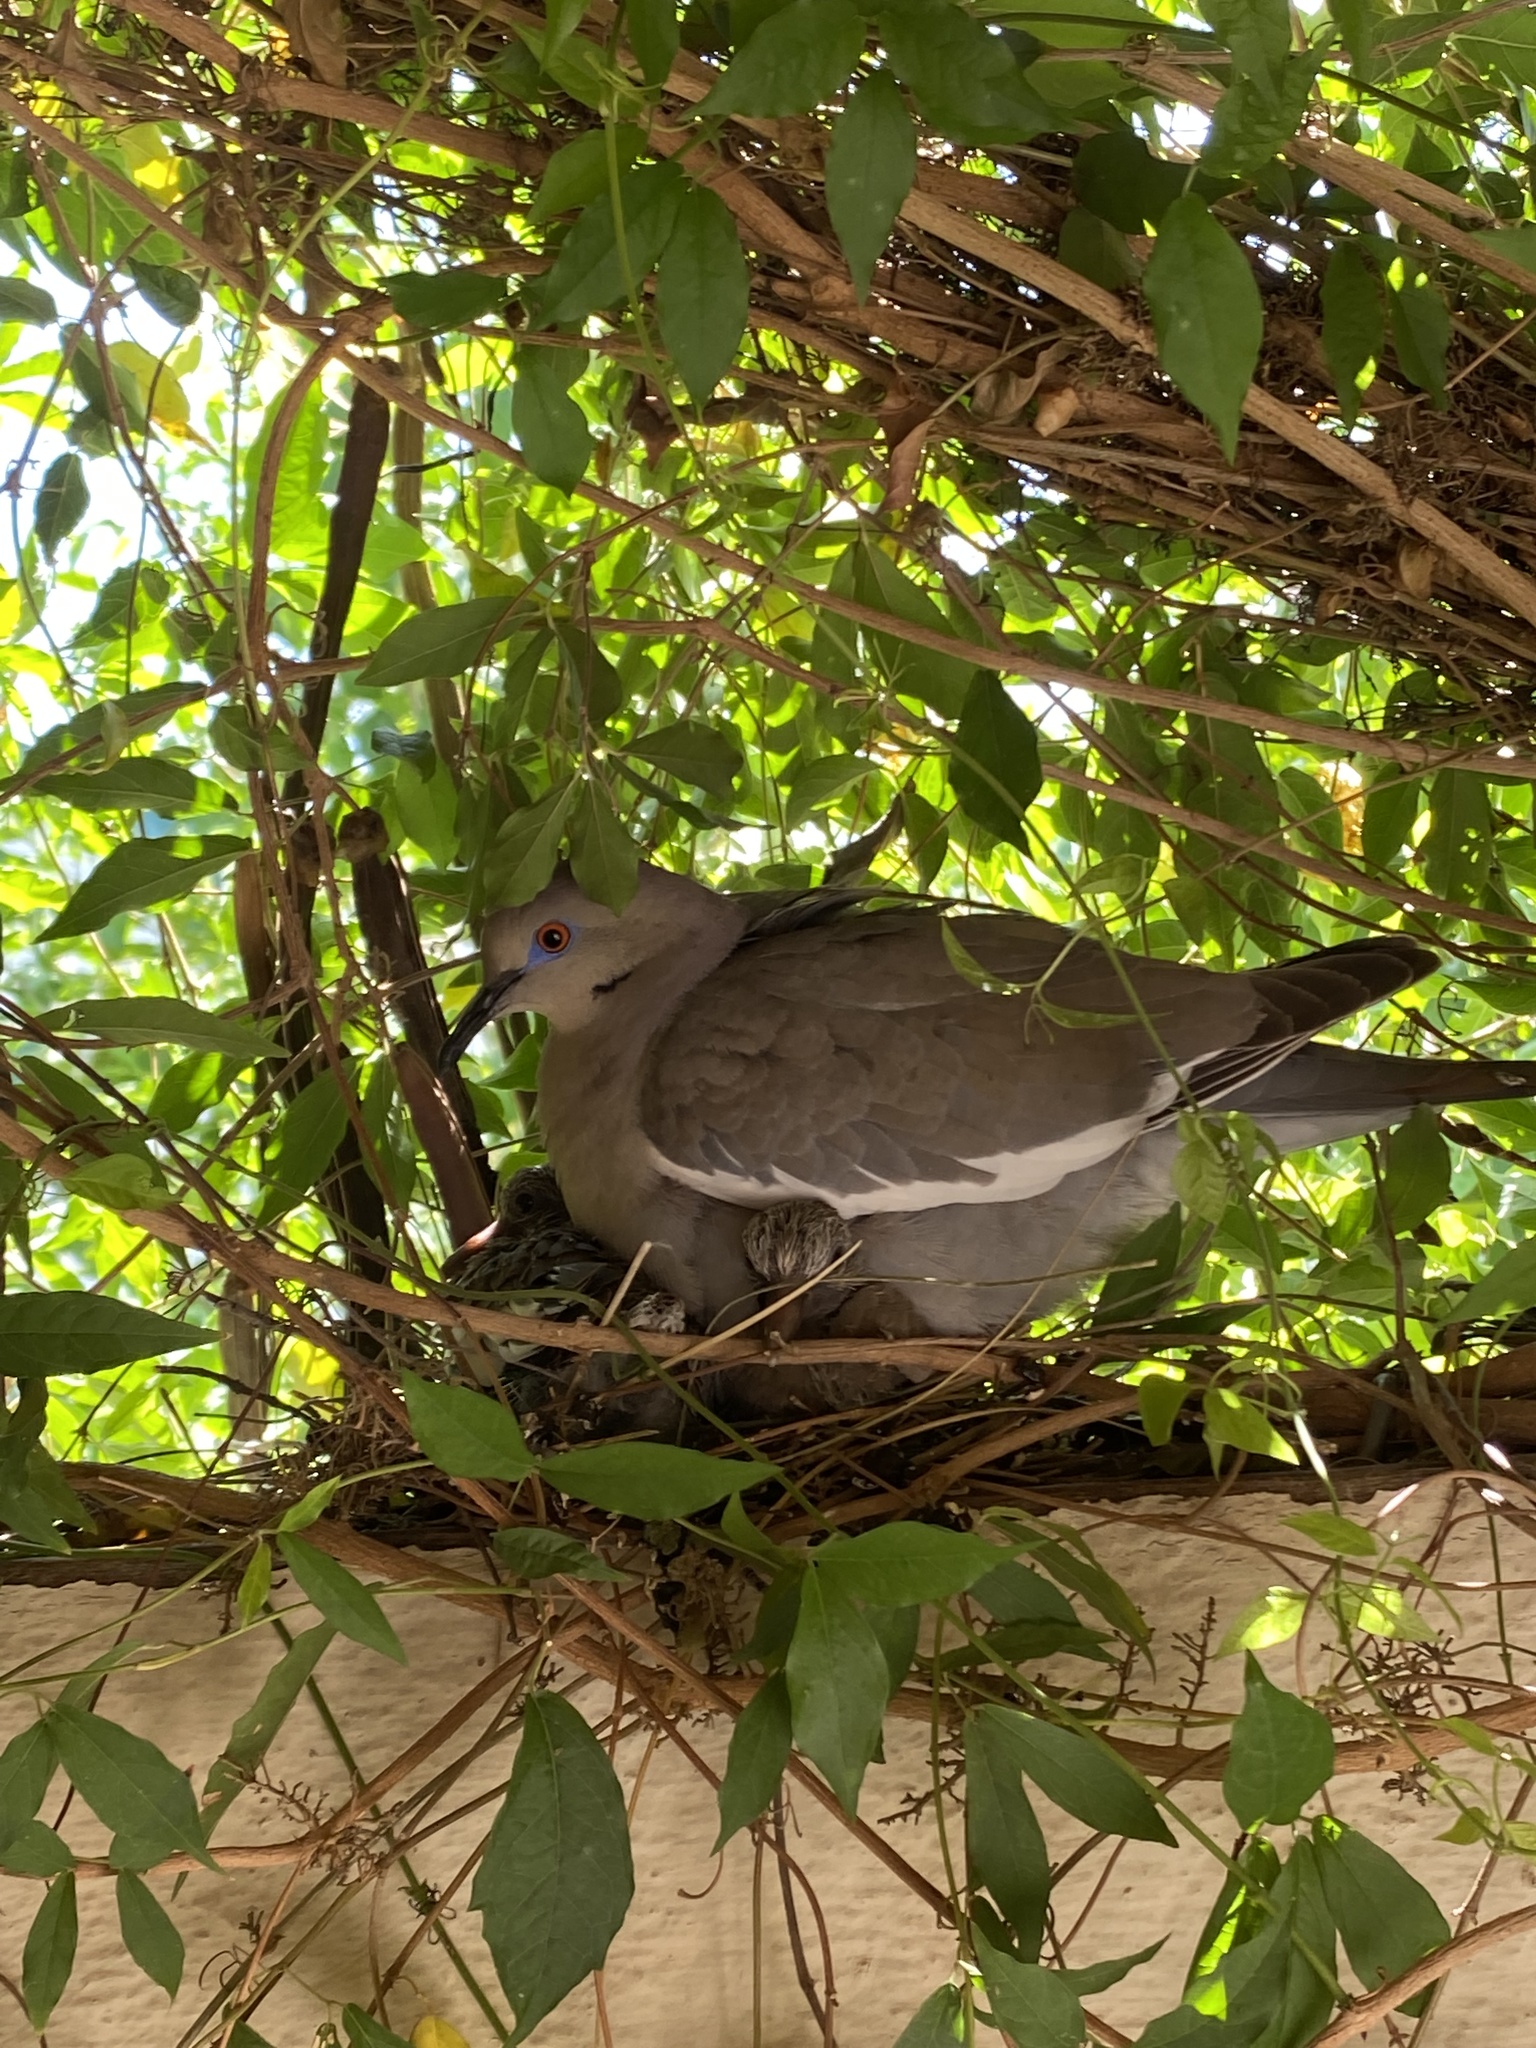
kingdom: Animalia
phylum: Chordata
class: Aves
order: Columbiformes
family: Columbidae
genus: Zenaida
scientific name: Zenaida asiatica
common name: White-winged dove
